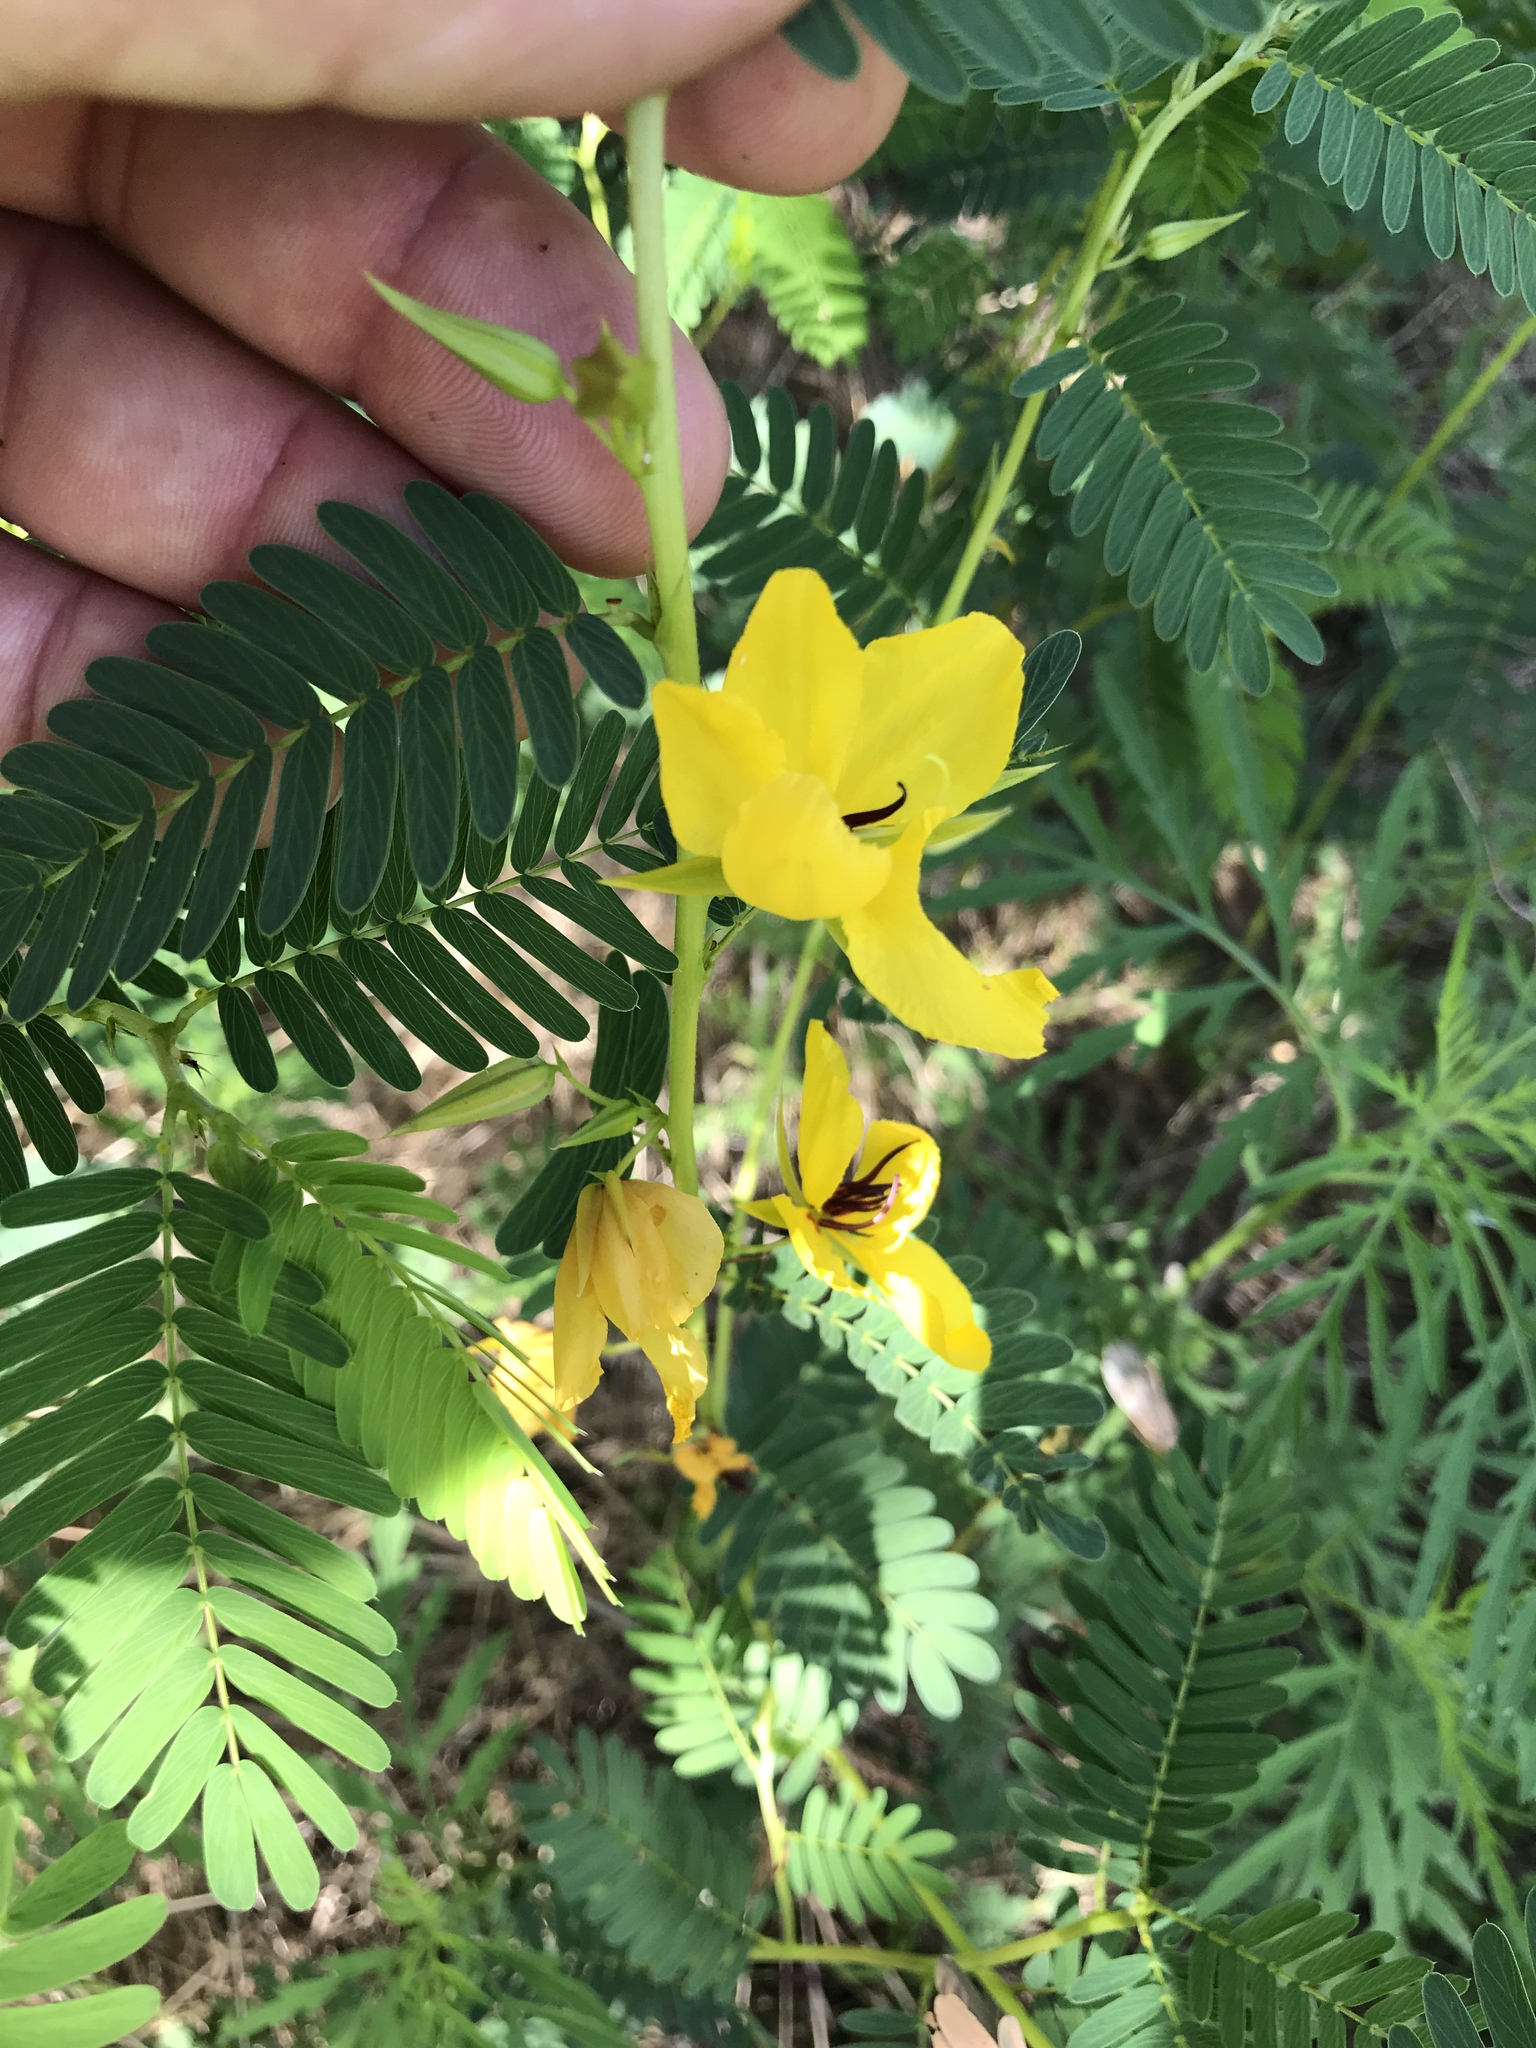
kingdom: Plantae
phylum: Tracheophyta
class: Magnoliopsida
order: Fabales
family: Fabaceae
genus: Chamaecrista
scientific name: Chamaecrista fasciculata
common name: Golden cassia
